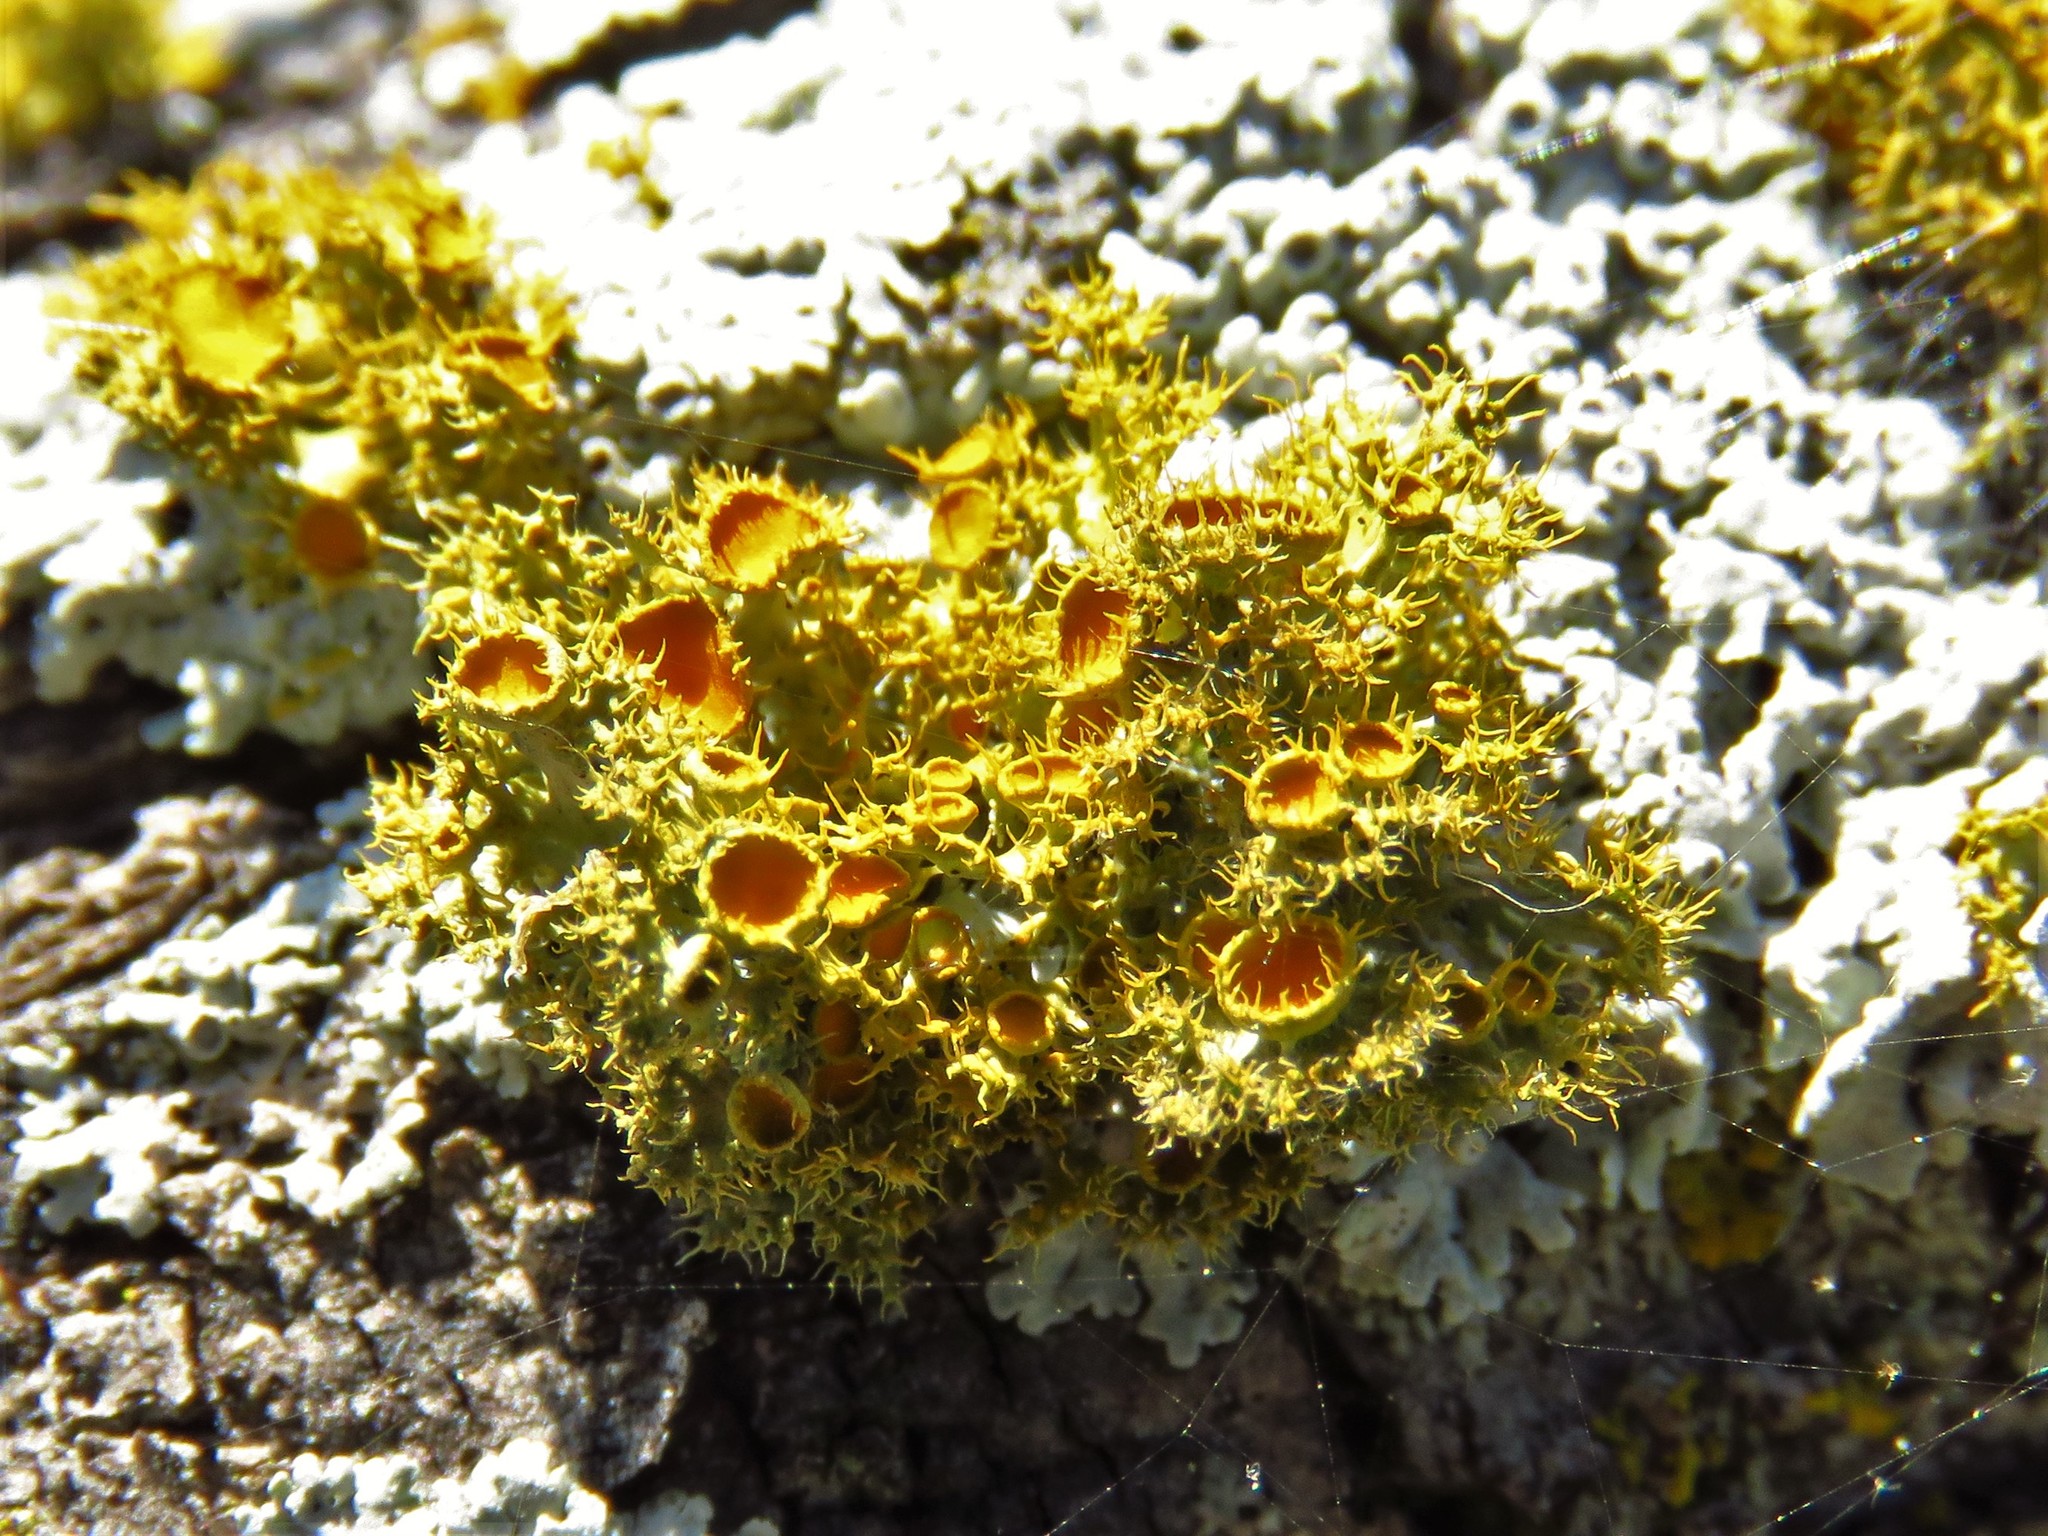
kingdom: Fungi
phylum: Ascomycota
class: Lecanoromycetes
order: Teloschistales
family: Teloschistaceae
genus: Niorma
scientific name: Niorma chrysophthalma
